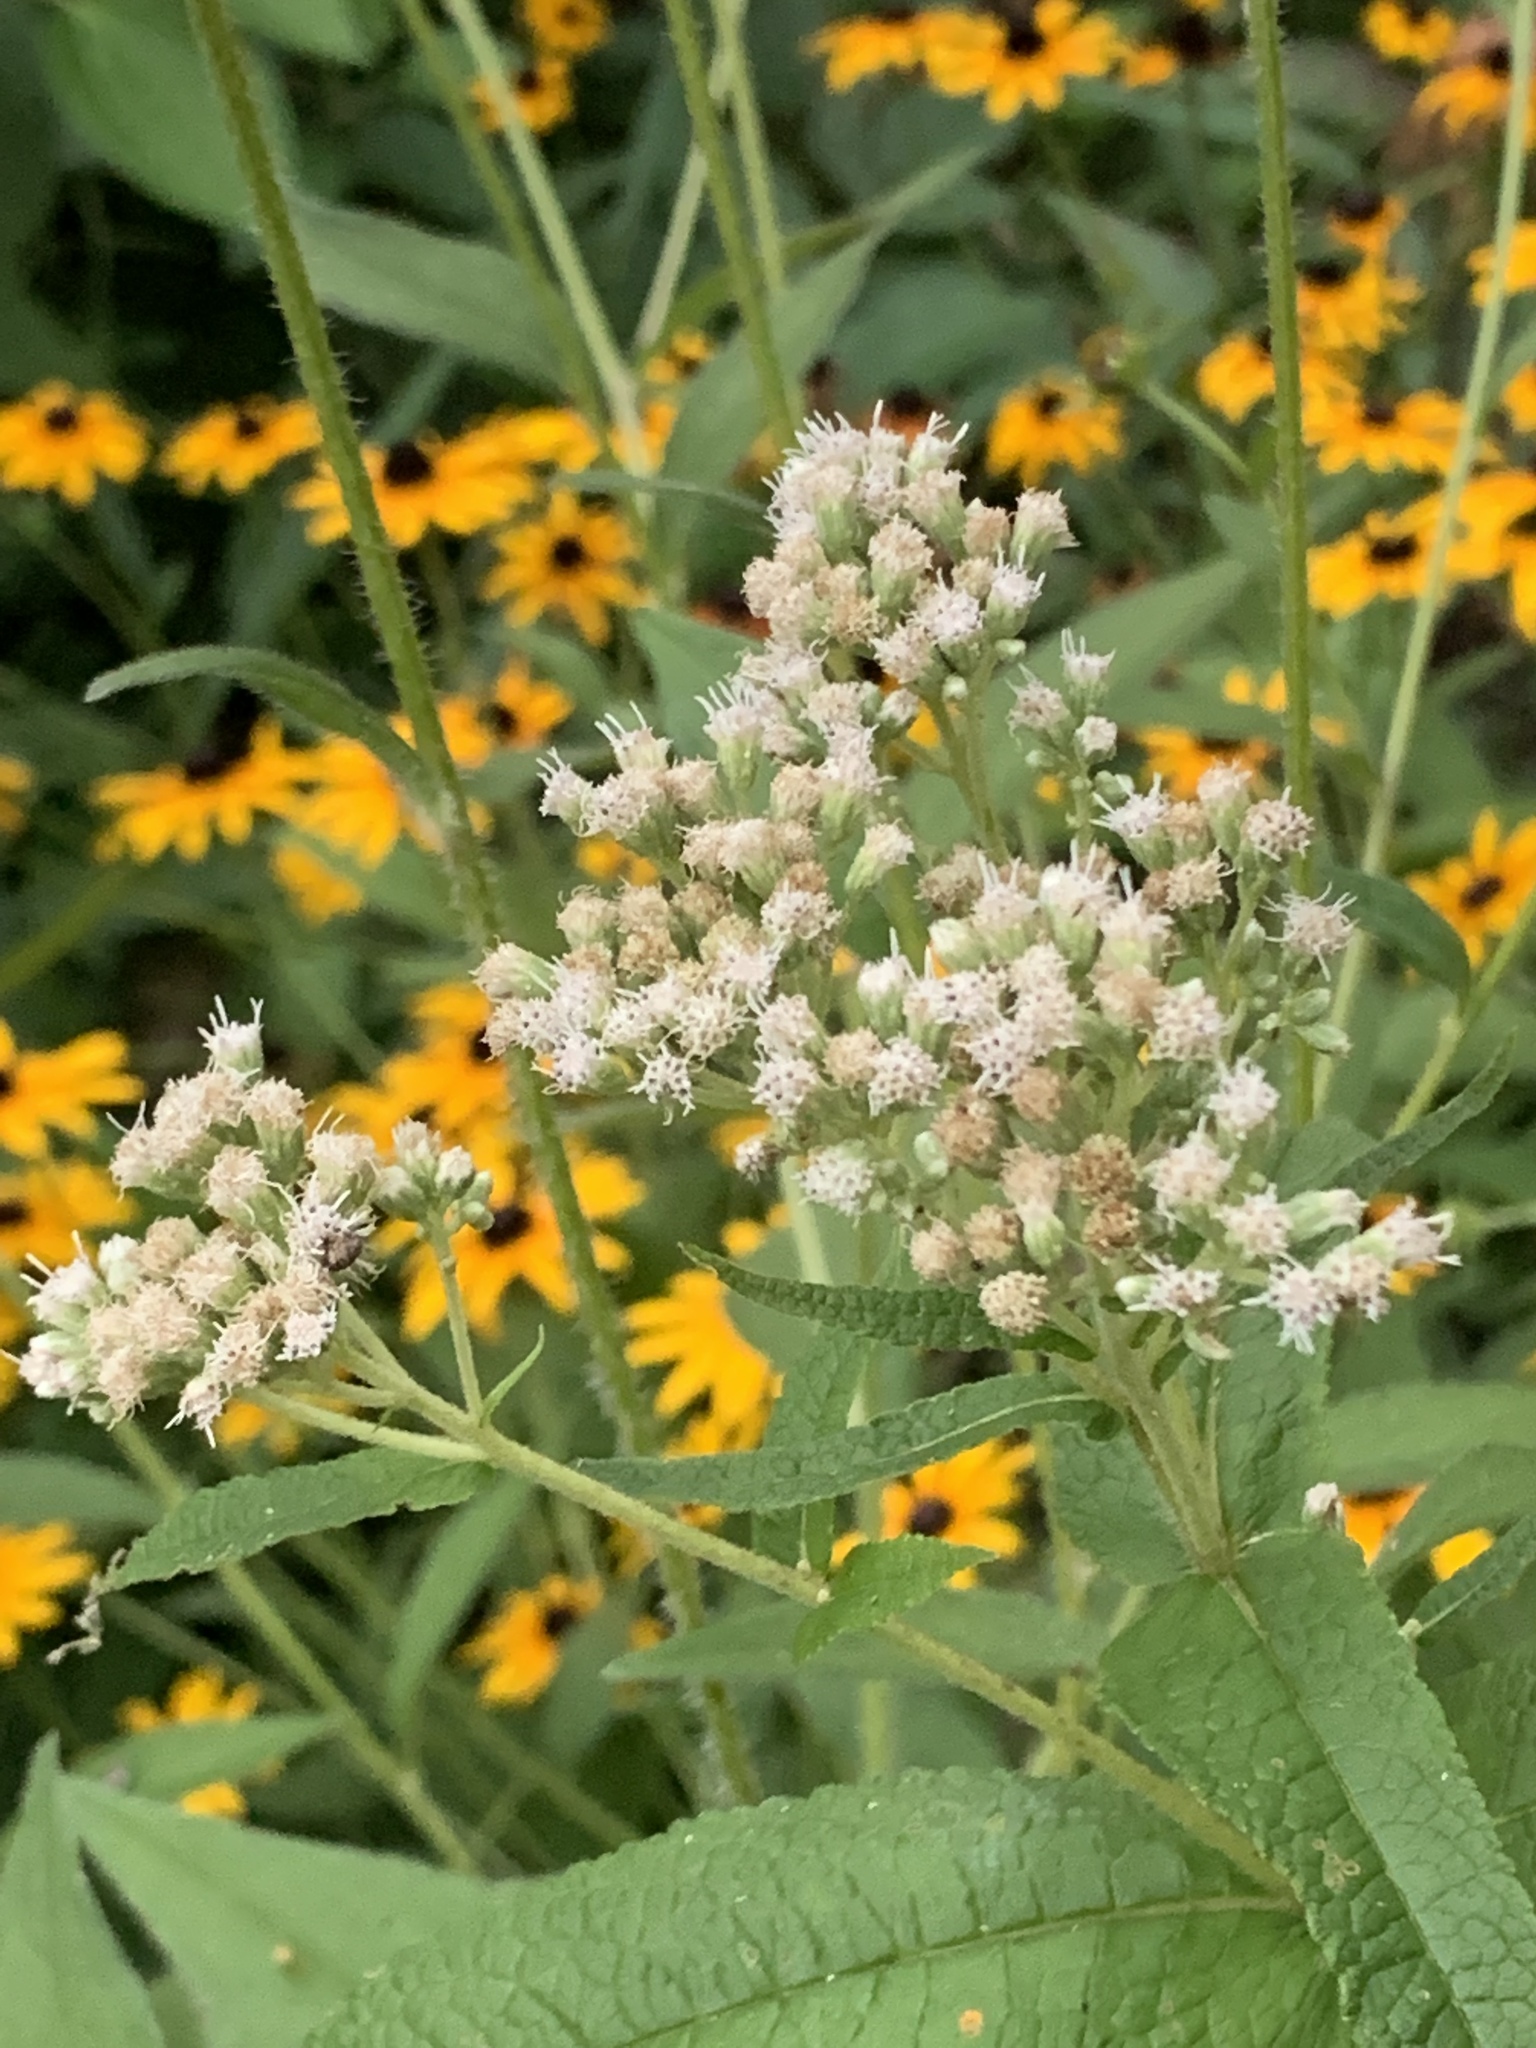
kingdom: Plantae
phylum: Tracheophyta
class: Magnoliopsida
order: Asterales
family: Asteraceae
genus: Eupatorium
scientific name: Eupatorium perfoliatum
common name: Boneset
